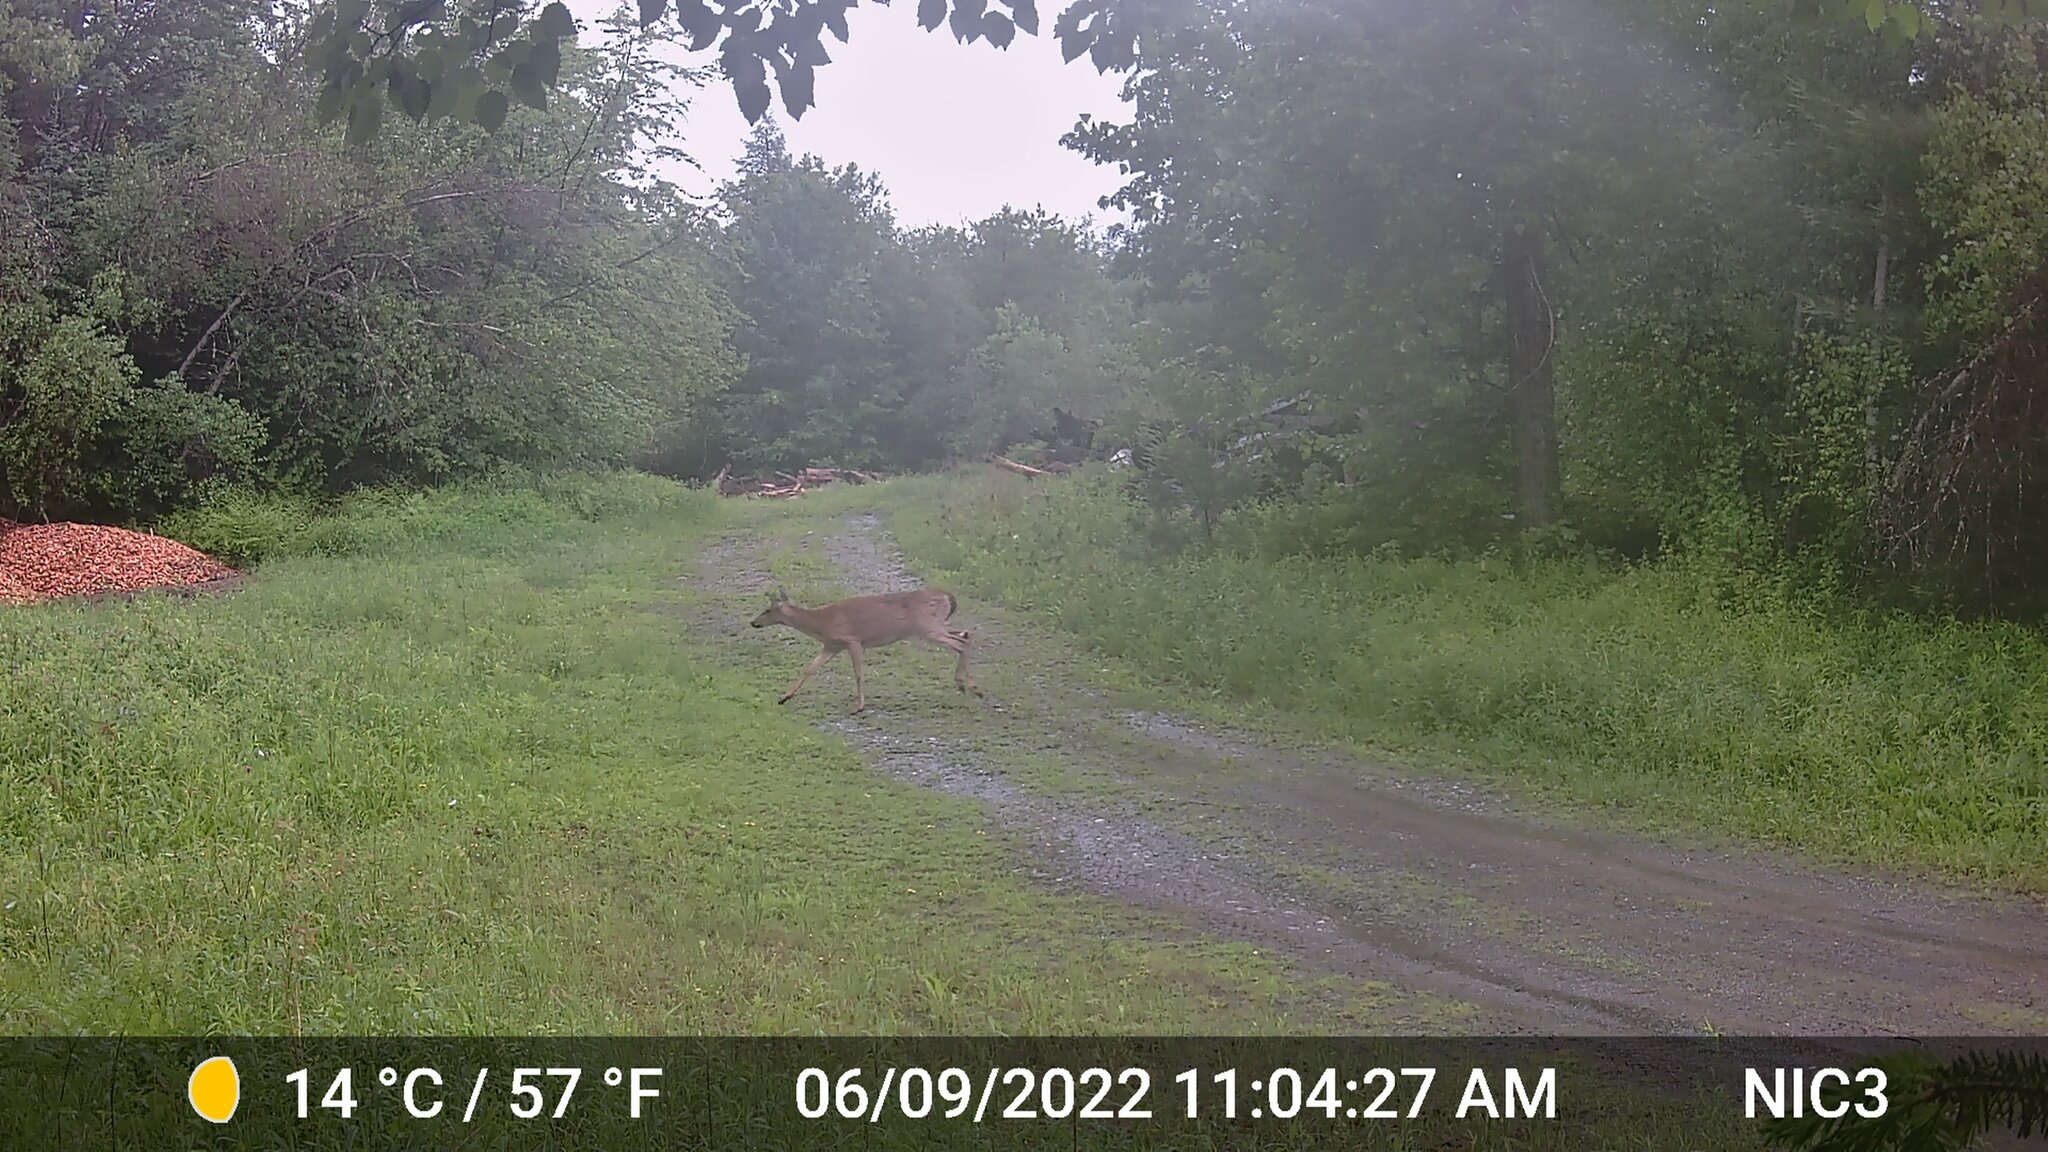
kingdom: Animalia
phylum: Chordata
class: Mammalia
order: Artiodactyla
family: Cervidae
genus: Odocoileus
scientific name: Odocoileus virginianus
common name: White-tailed deer
